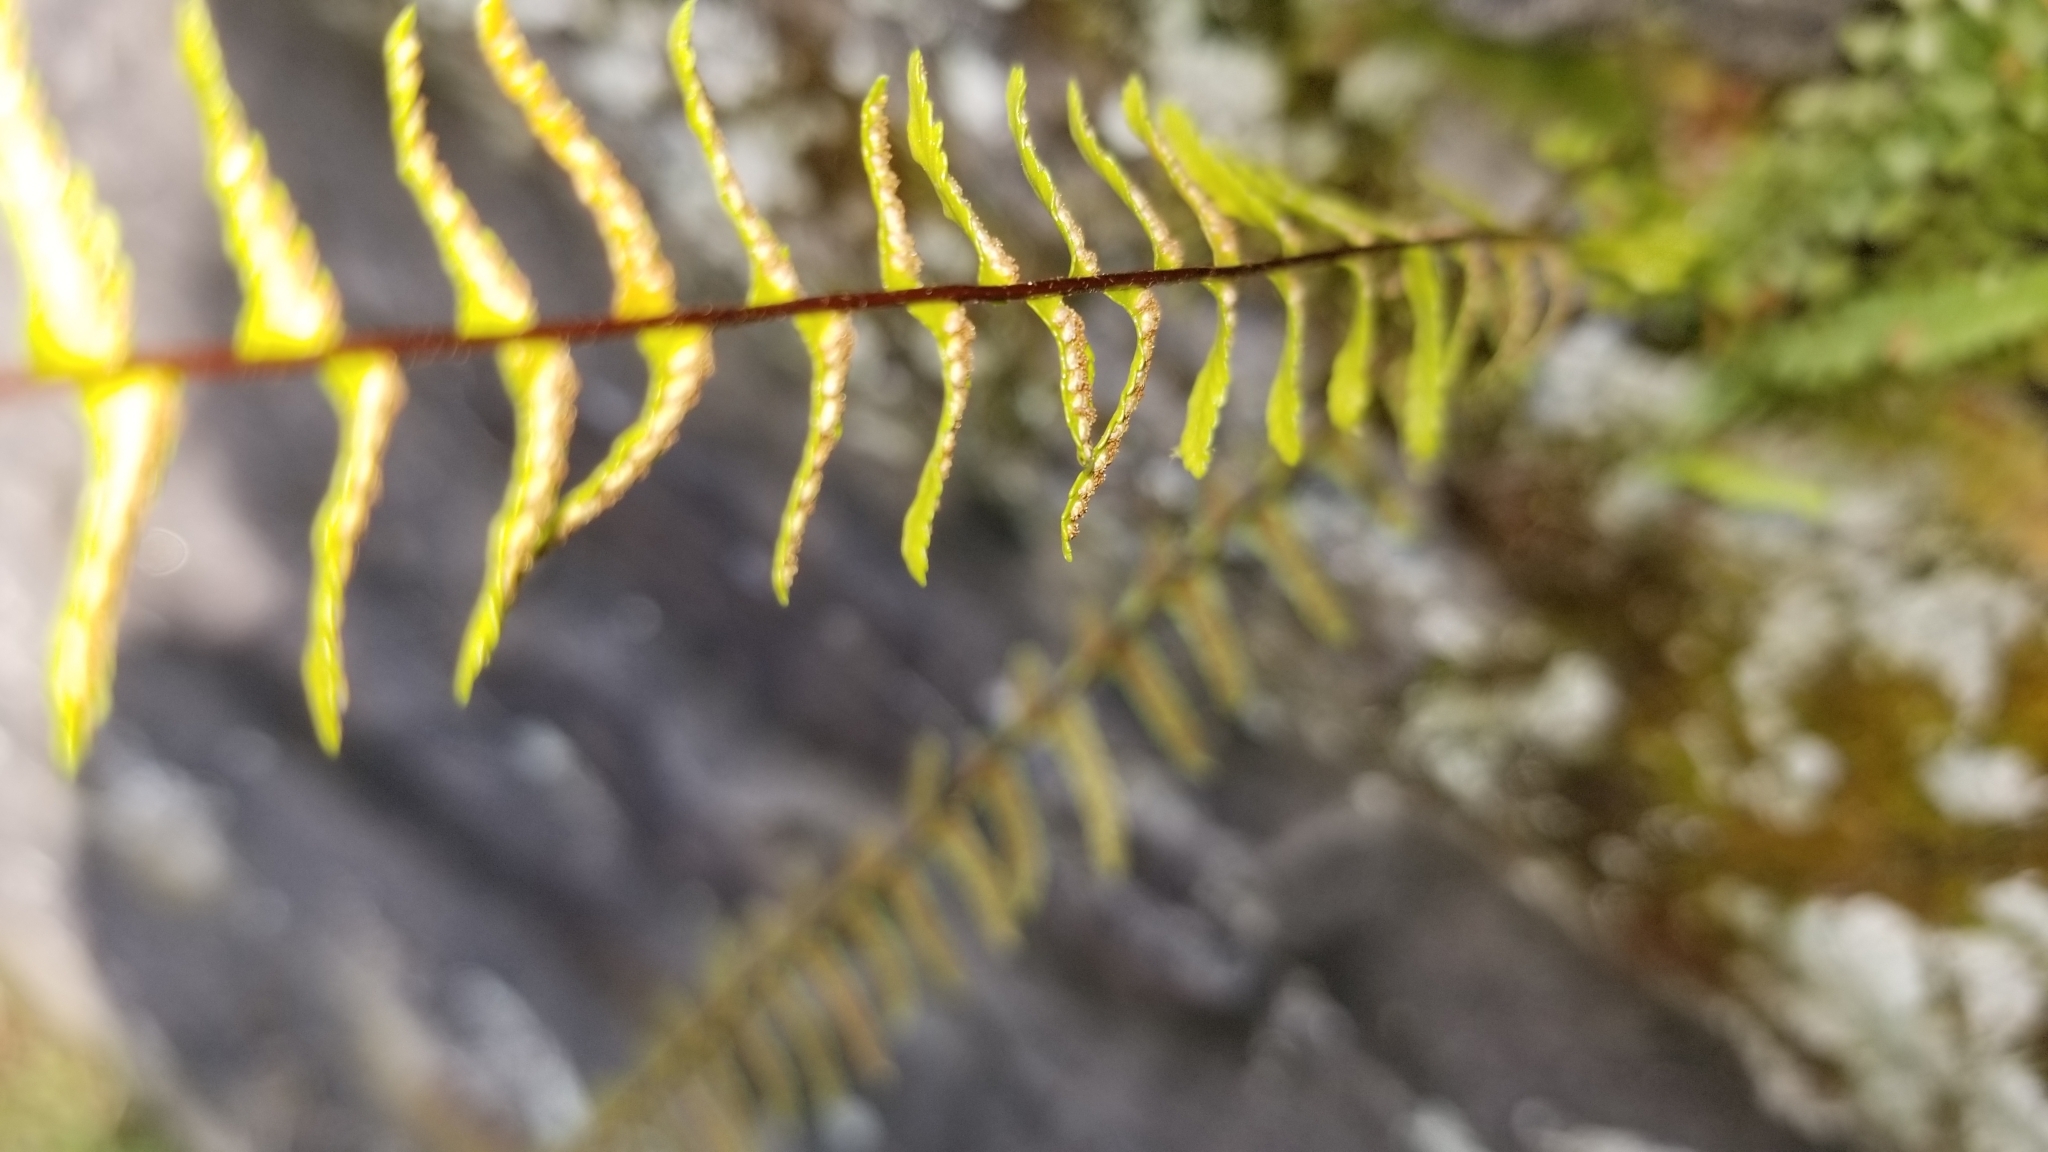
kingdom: Plantae
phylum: Tracheophyta
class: Polypodiopsida
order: Polypodiales
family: Aspleniaceae
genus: Asplenium
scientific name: Asplenium platyneuron
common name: Ebony spleenwort
